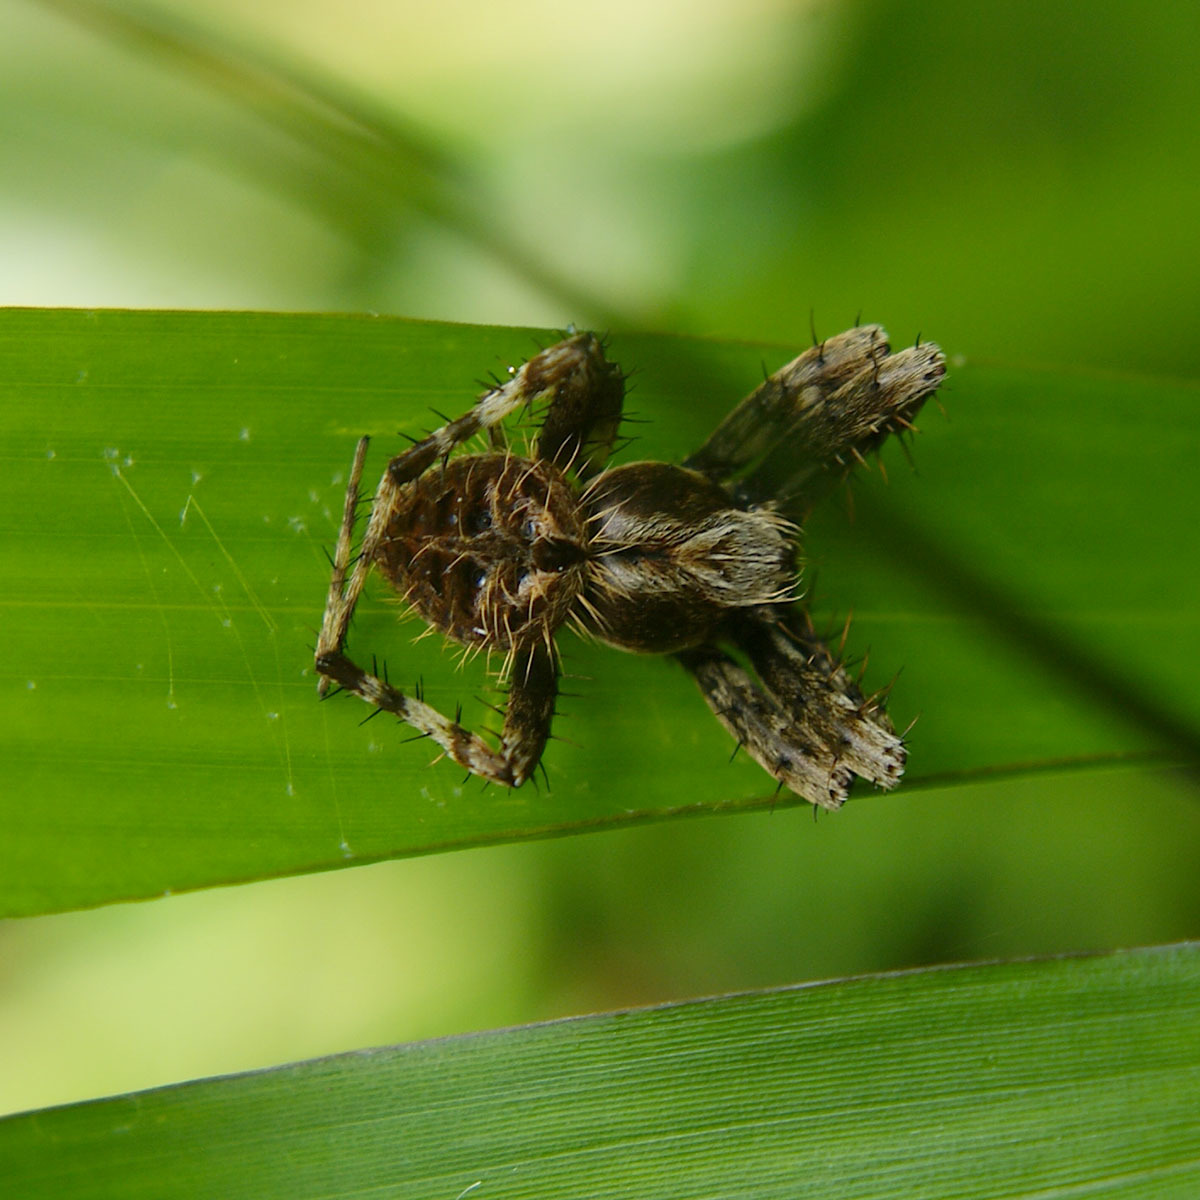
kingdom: Animalia
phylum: Arthropoda
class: Arachnida
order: Araneae
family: Araneidae
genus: Neoscona
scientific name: Neoscona mukerjei
